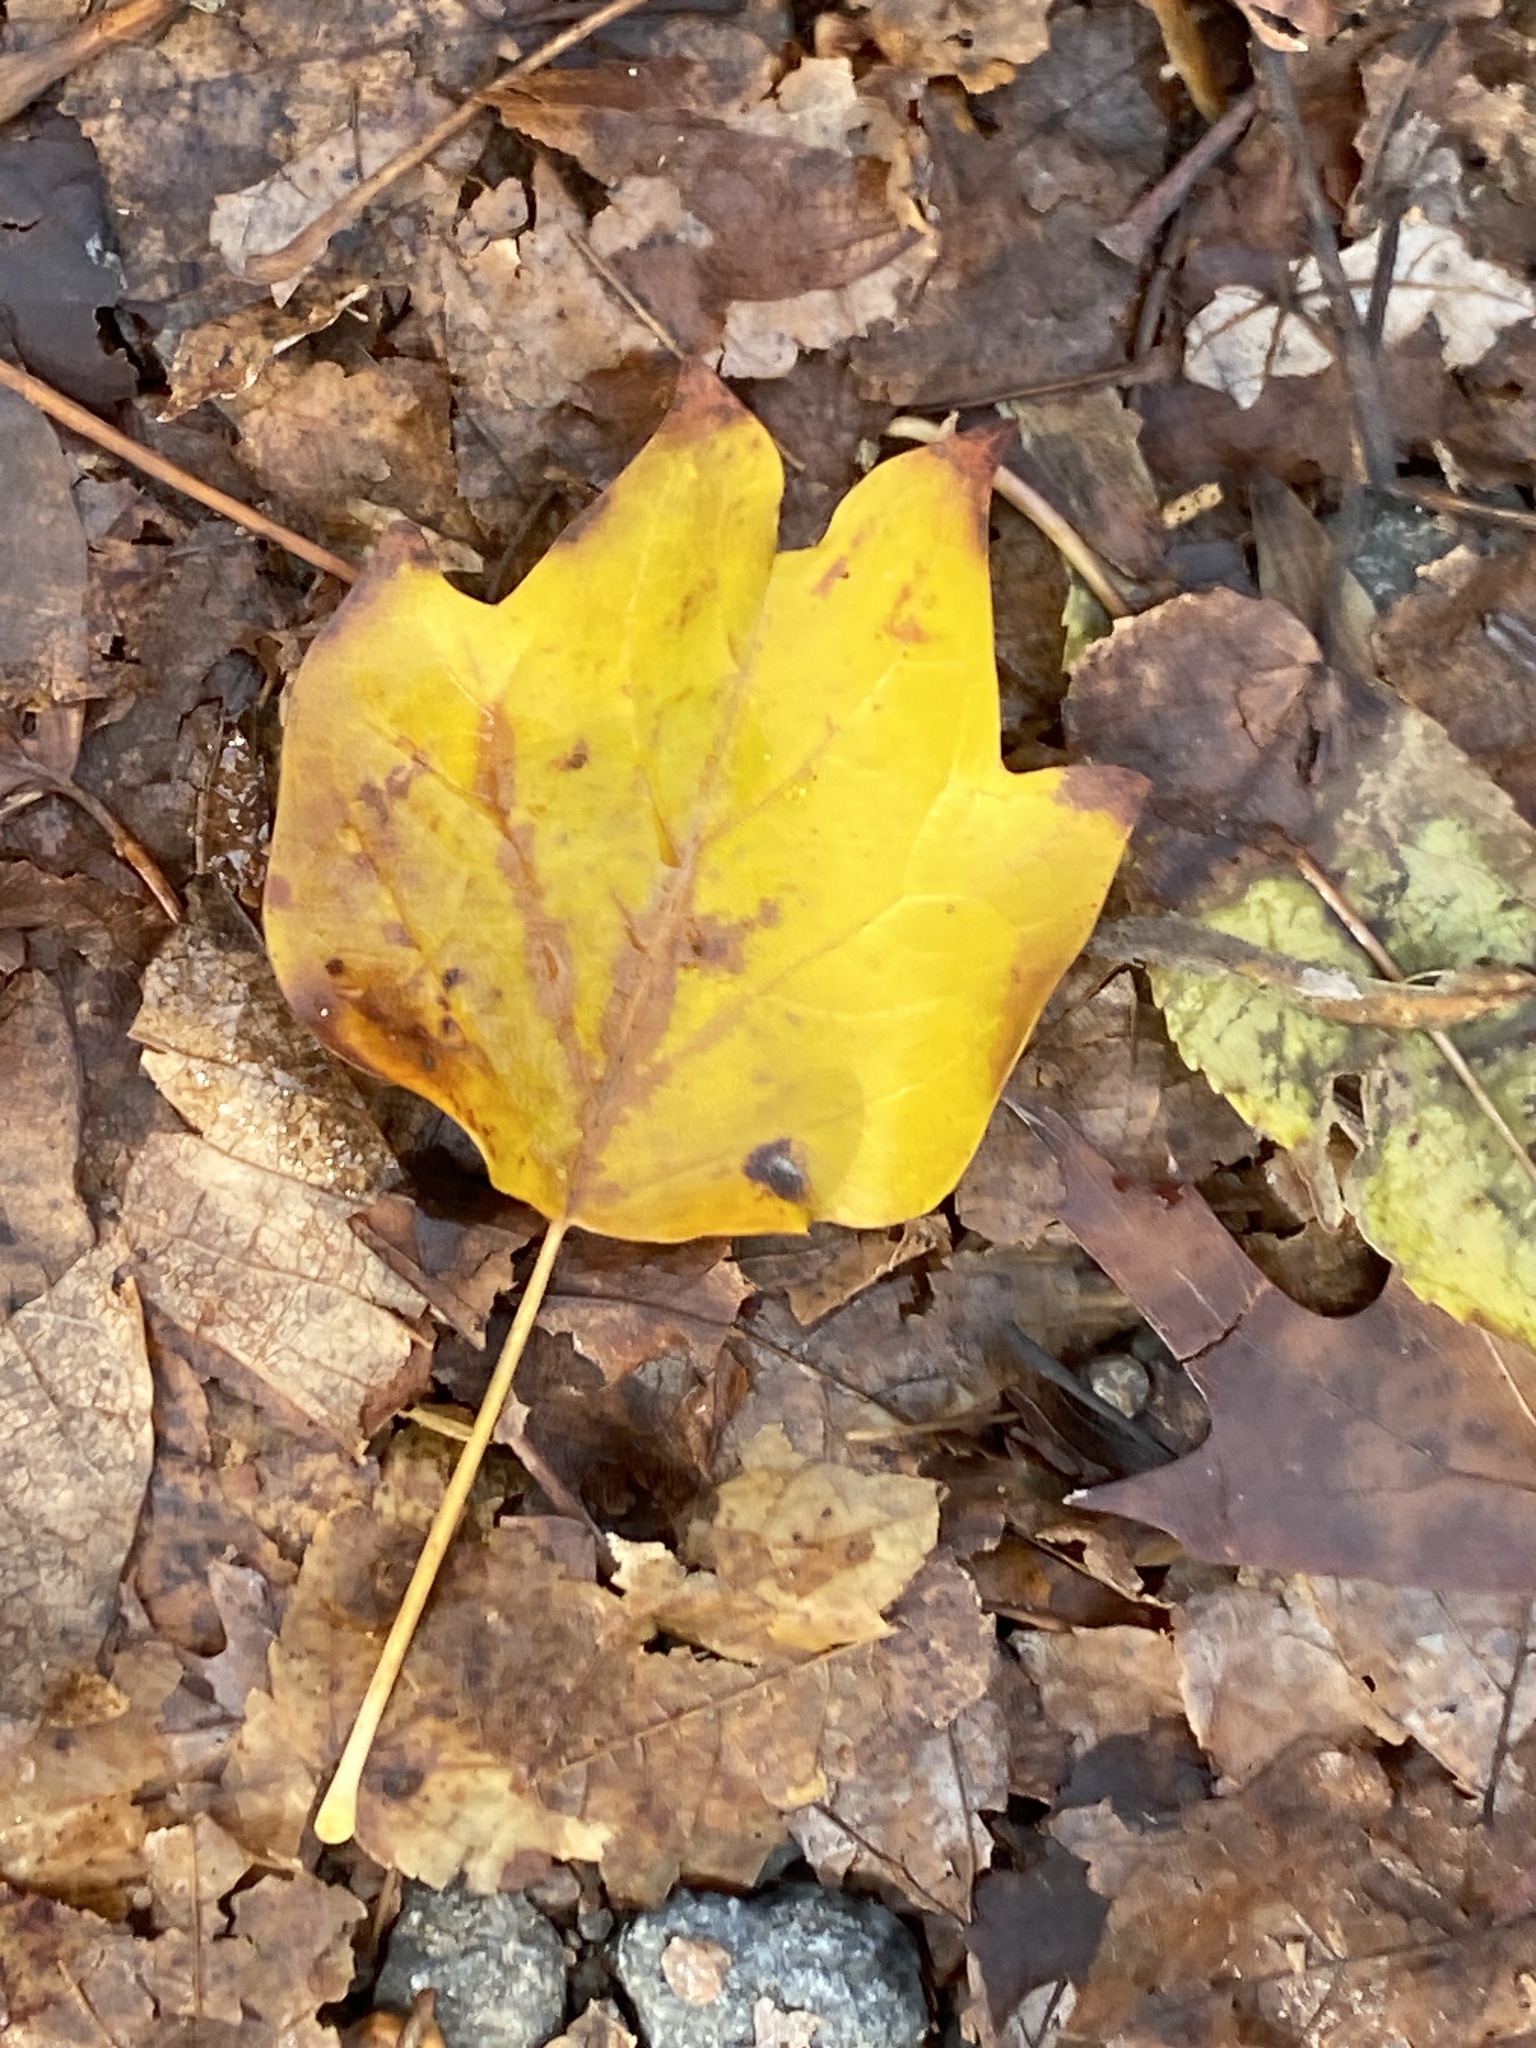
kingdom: Plantae
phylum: Tracheophyta
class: Magnoliopsida
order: Magnoliales
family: Magnoliaceae
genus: Liriodendron
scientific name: Liriodendron tulipifera
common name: Tulip tree
